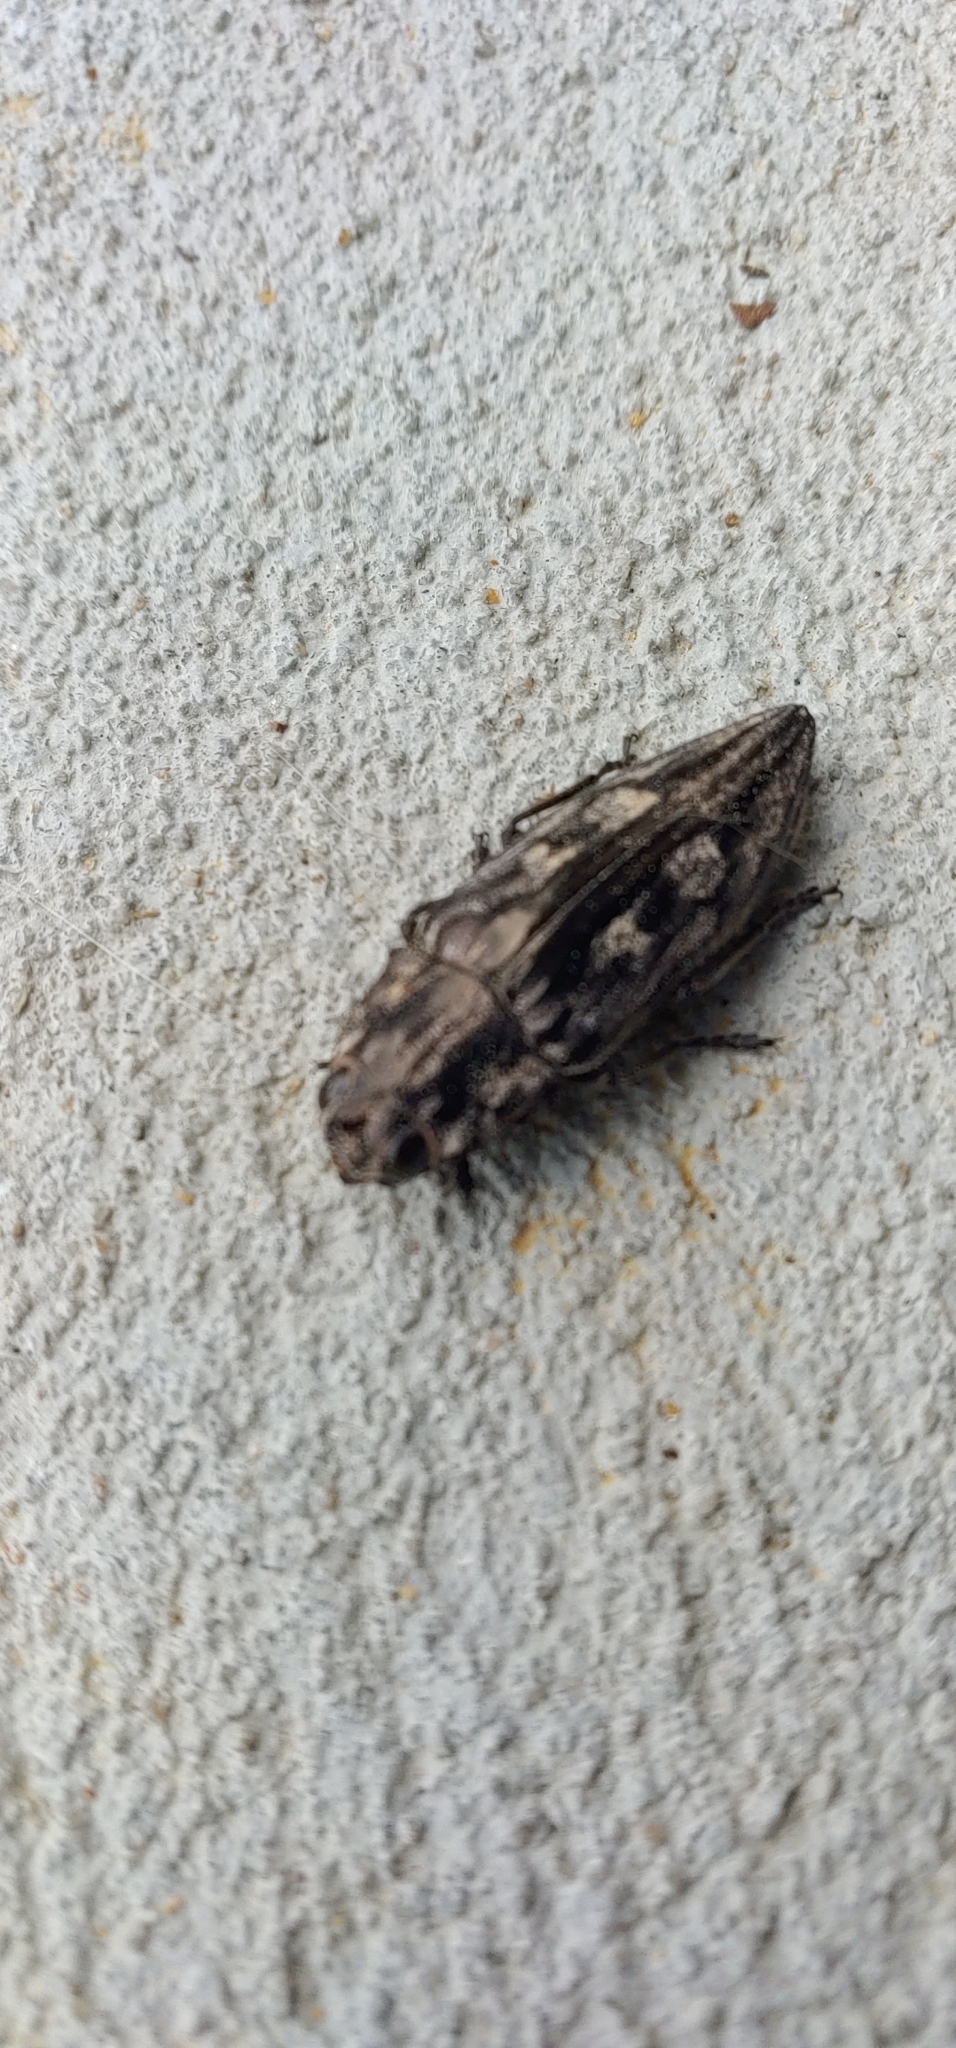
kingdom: Animalia
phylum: Arthropoda
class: Insecta
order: Coleoptera
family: Buprestidae
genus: Chalcophora
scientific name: Chalcophora virginiensis
